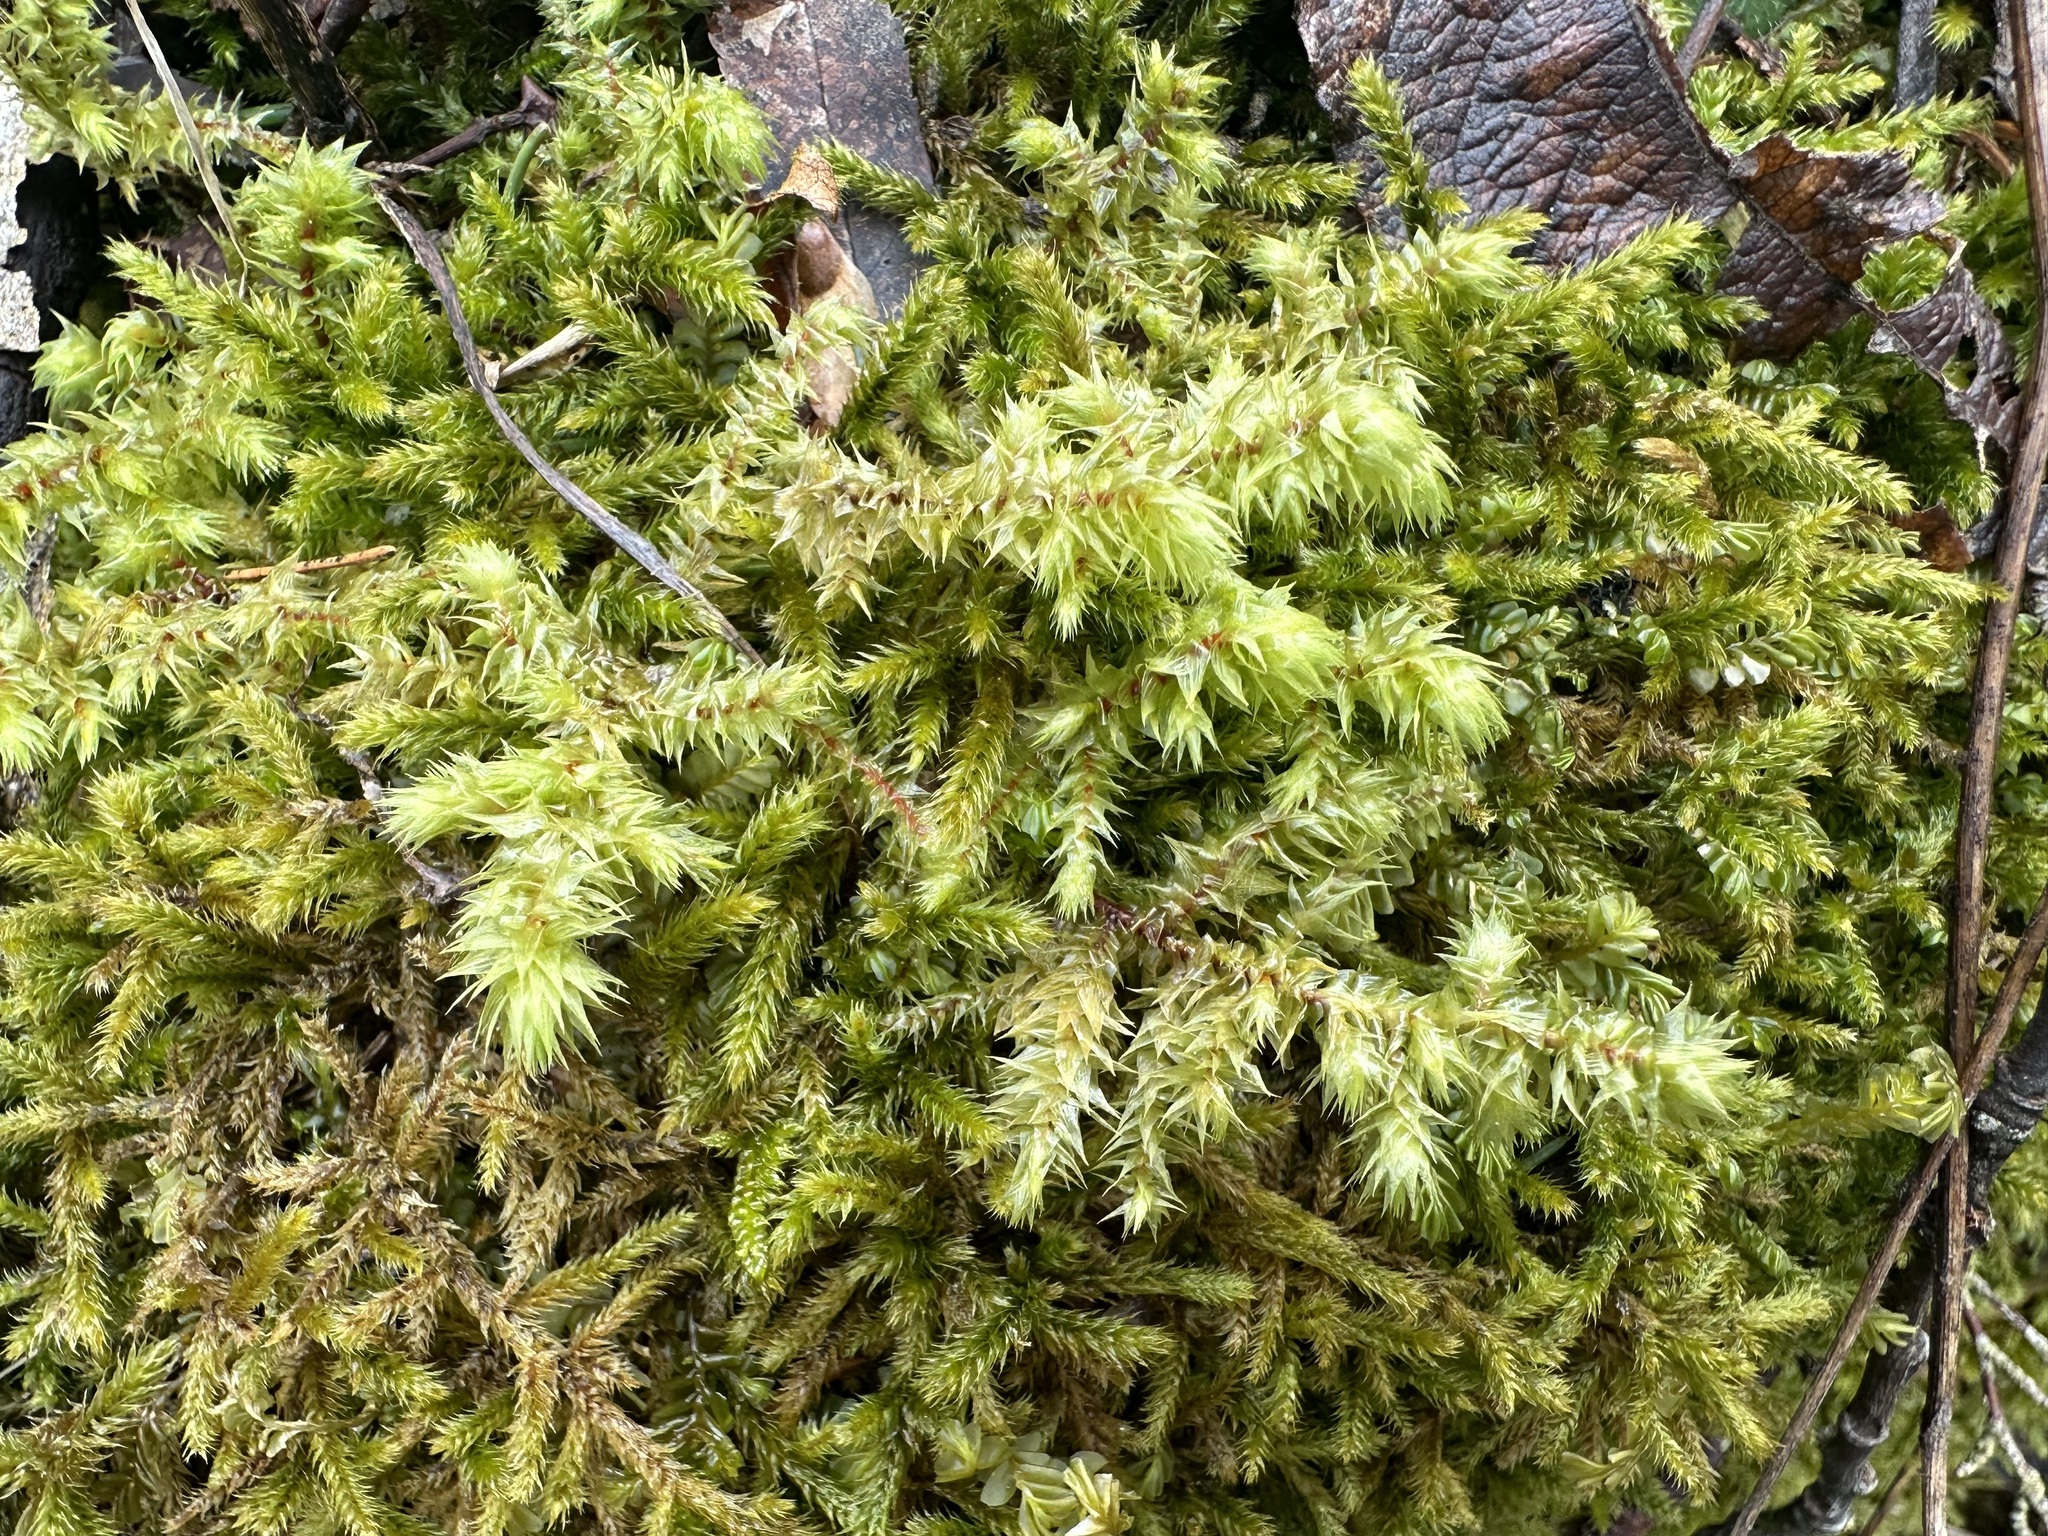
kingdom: Plantae
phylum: Bryophyta
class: Bryopsida
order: Hypnales
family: Hylocomiaceae
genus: Hylocomiadelphus
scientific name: Hylocomiadelphus triquetrus
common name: Rough goose neck moss
